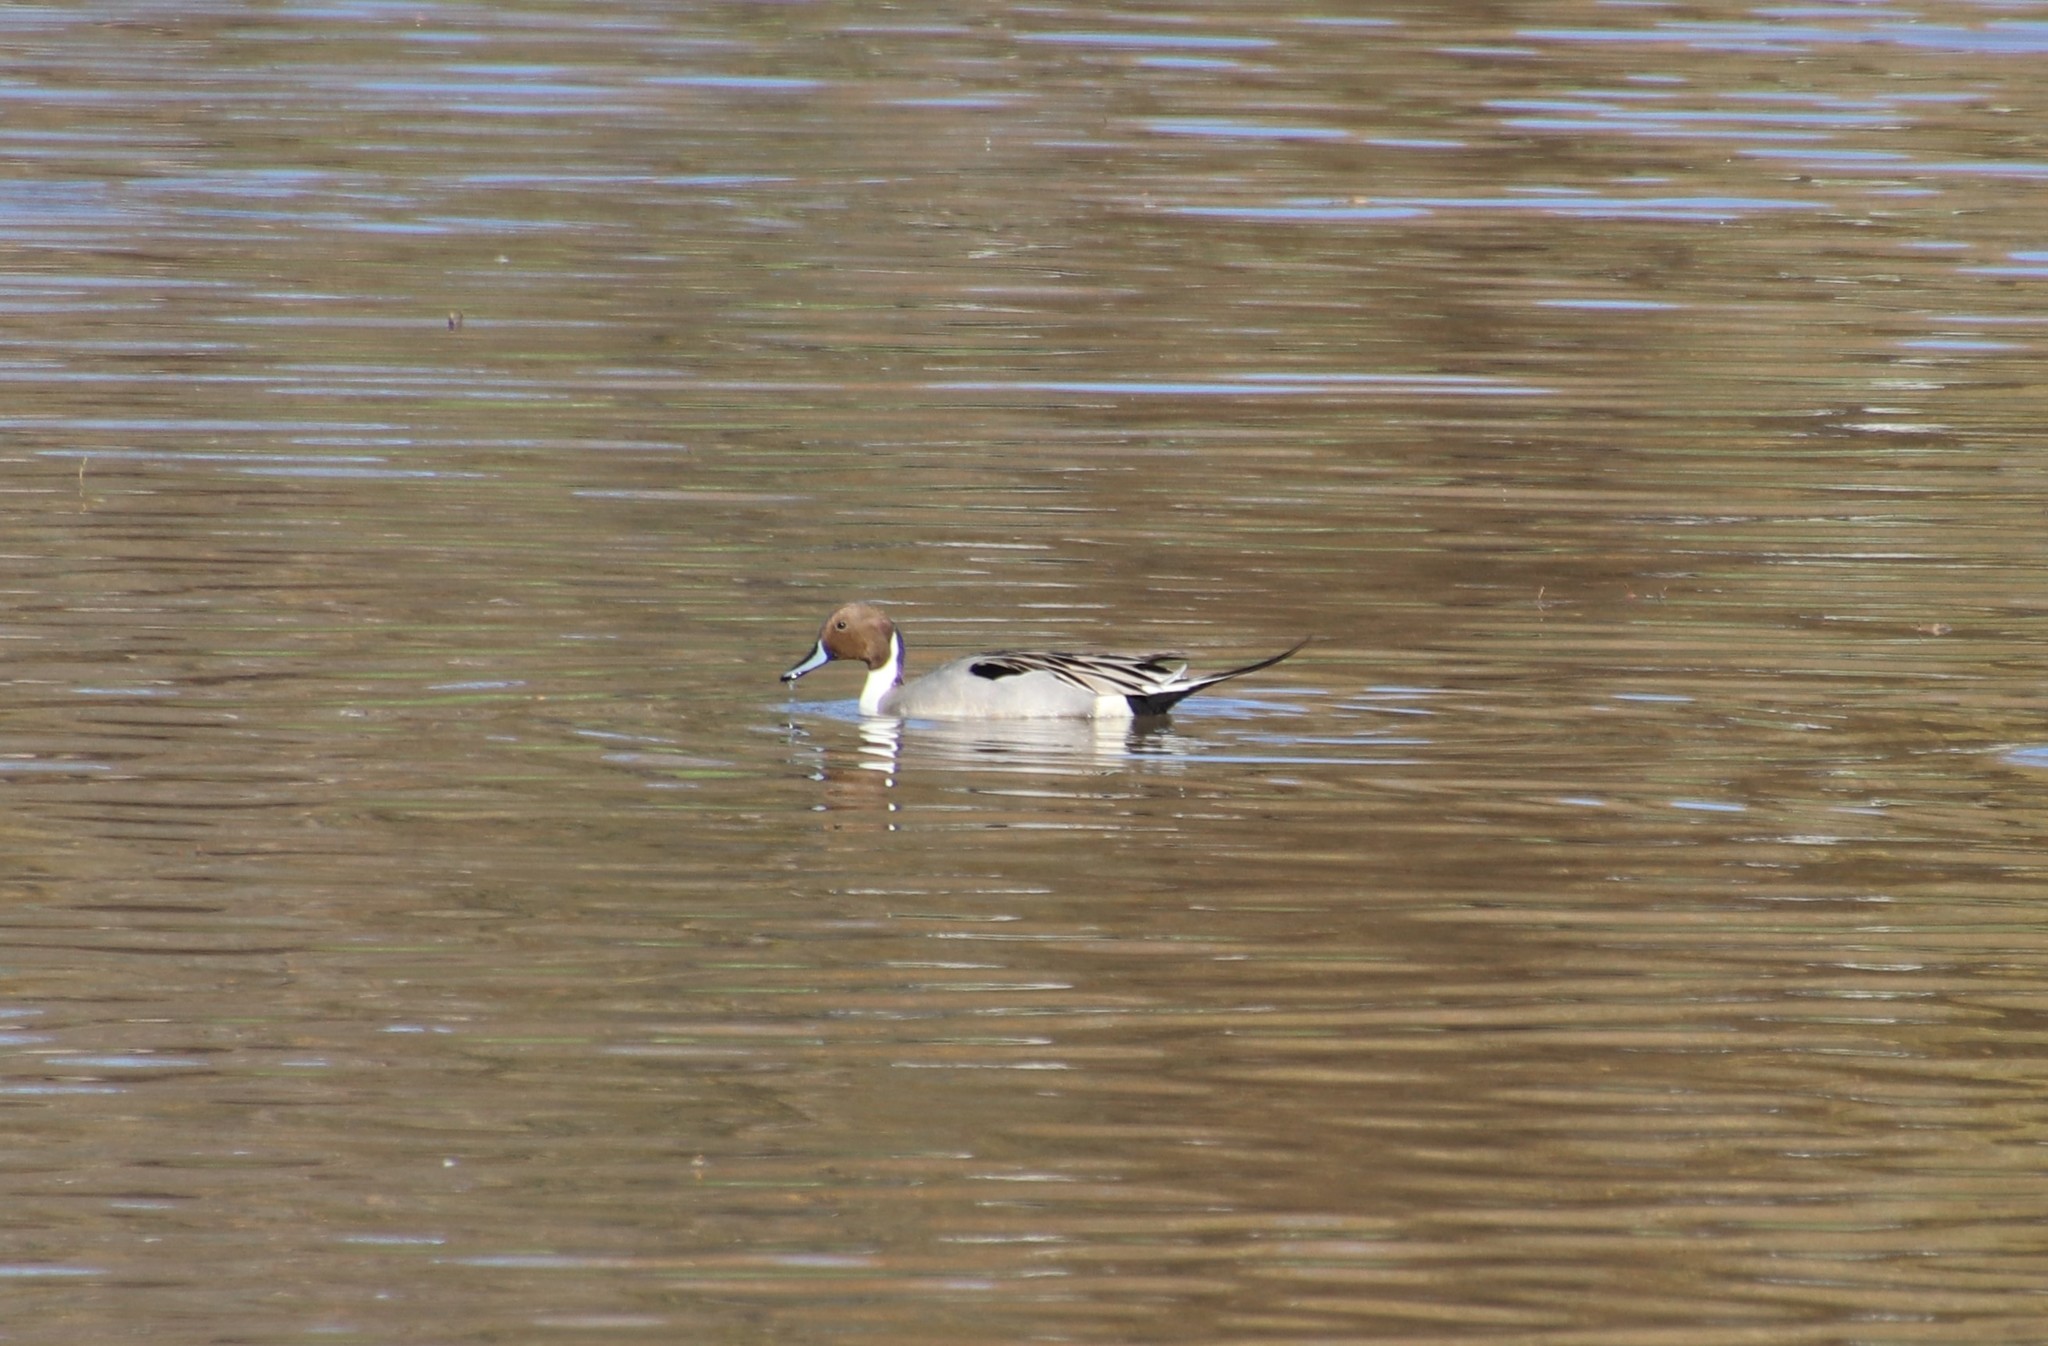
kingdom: Animalia
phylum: Chordata
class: Aves
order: Anseriformes
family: Anatidae
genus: Anas
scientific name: Anas acuta
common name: Northern pintail
